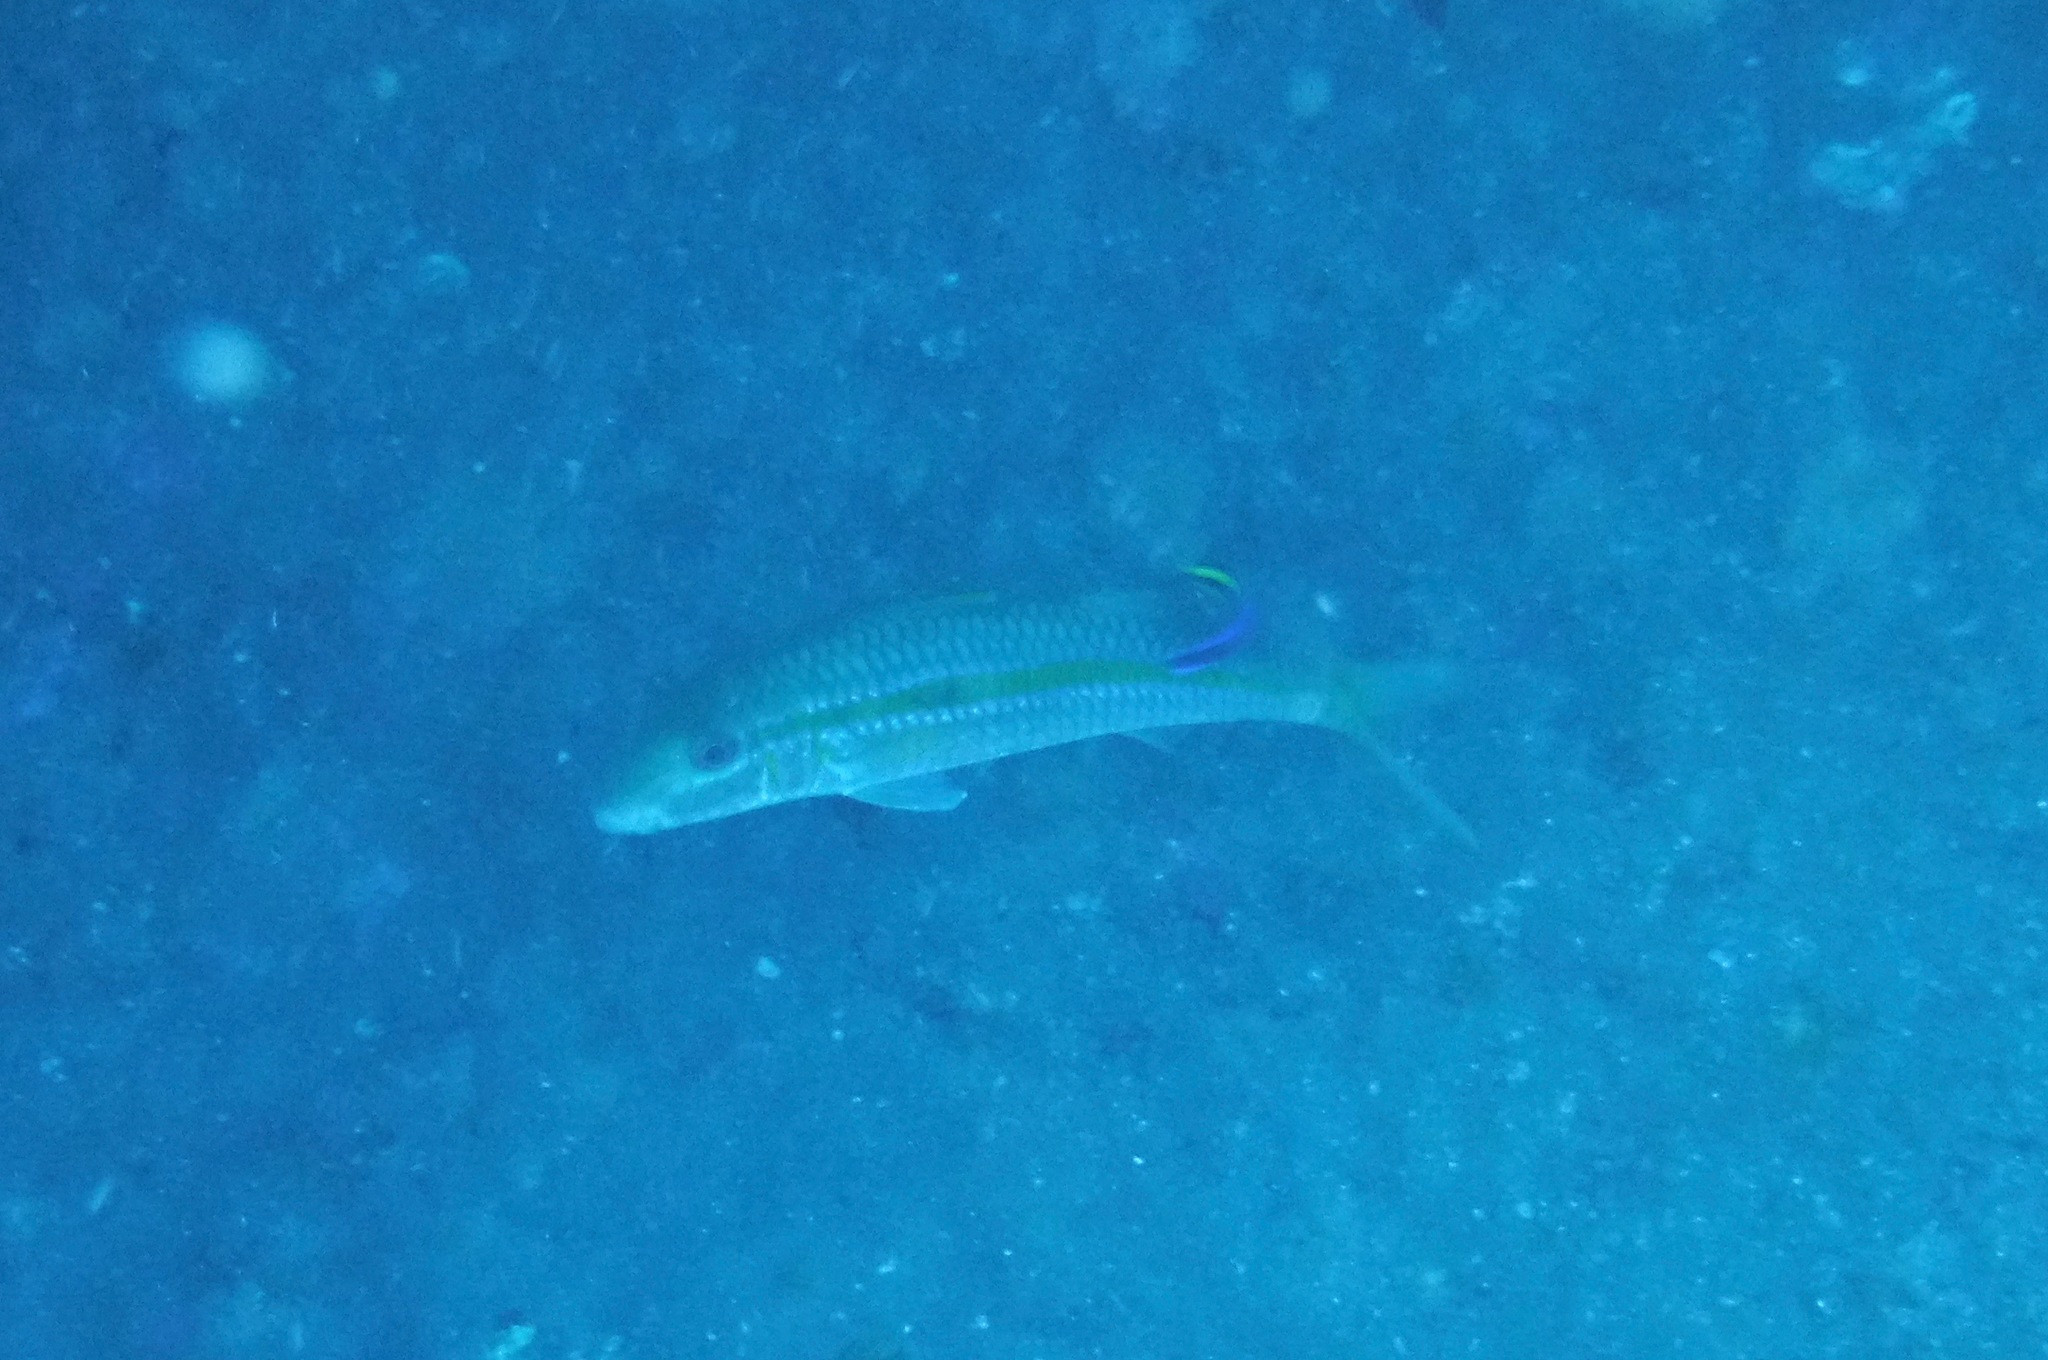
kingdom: Animalia
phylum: Chordata
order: Perciformes
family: Labridae
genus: Labroides
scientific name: Labroides phthirophagus
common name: Cleaner wrasse
